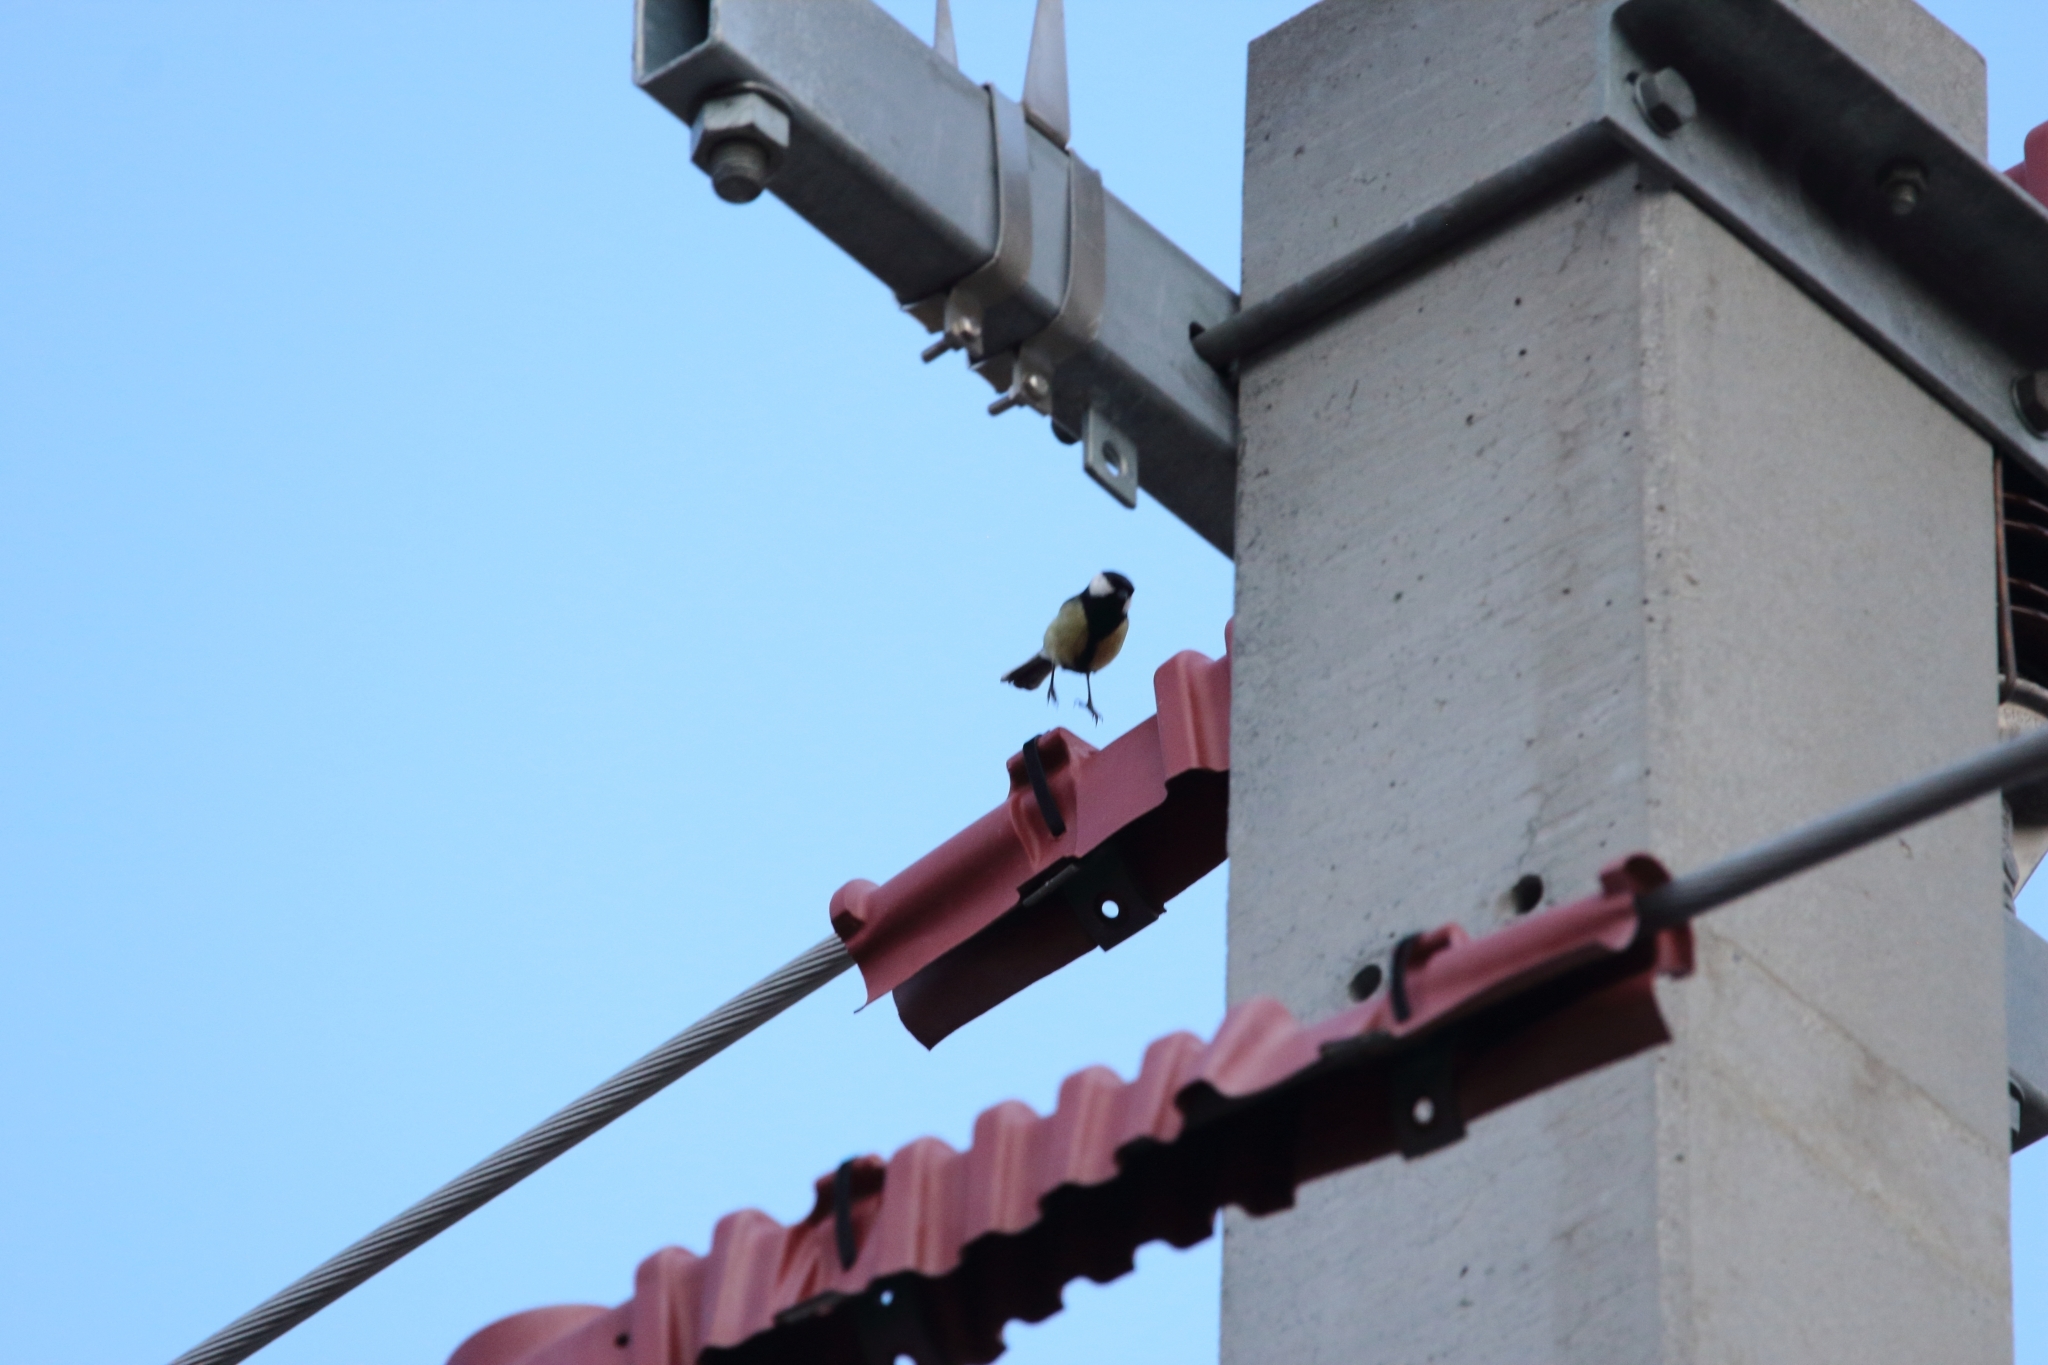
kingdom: Animalia
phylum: Chordata
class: Aves
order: Passeriformes
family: Paridae
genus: Parus
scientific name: Parus major
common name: Great tit
